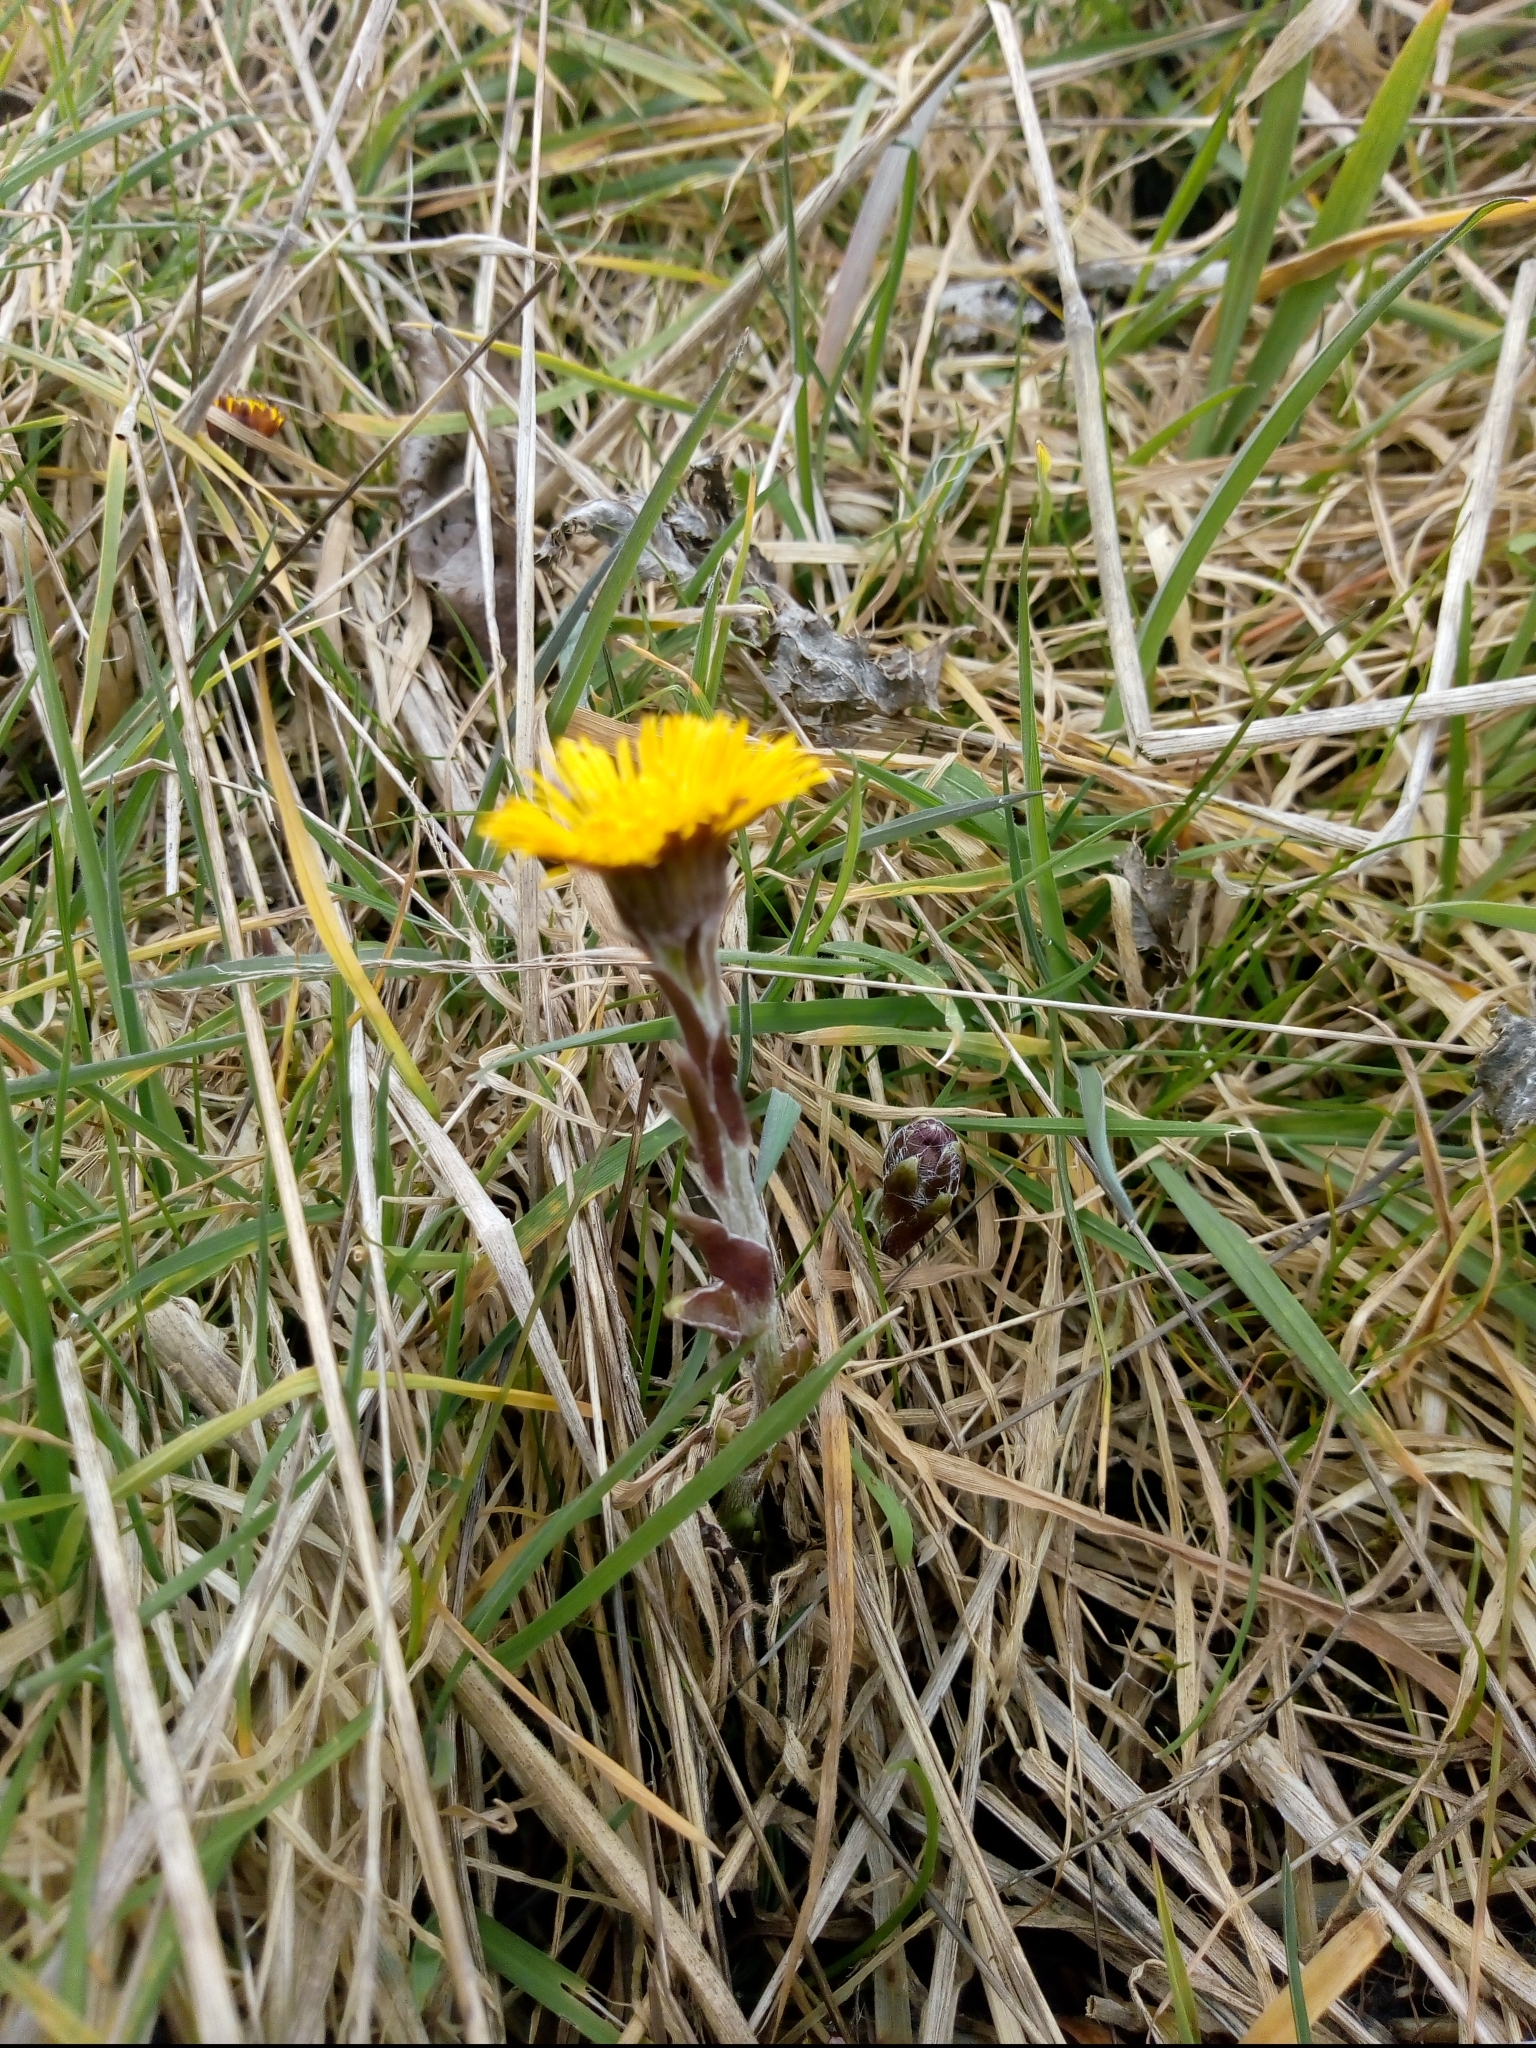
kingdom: Plantae
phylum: Tracheophyta
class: Magnoliopsida
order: Asterales
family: Asteraceae
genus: Tussilago
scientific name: Tussilago farfara
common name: Coltsfoot
